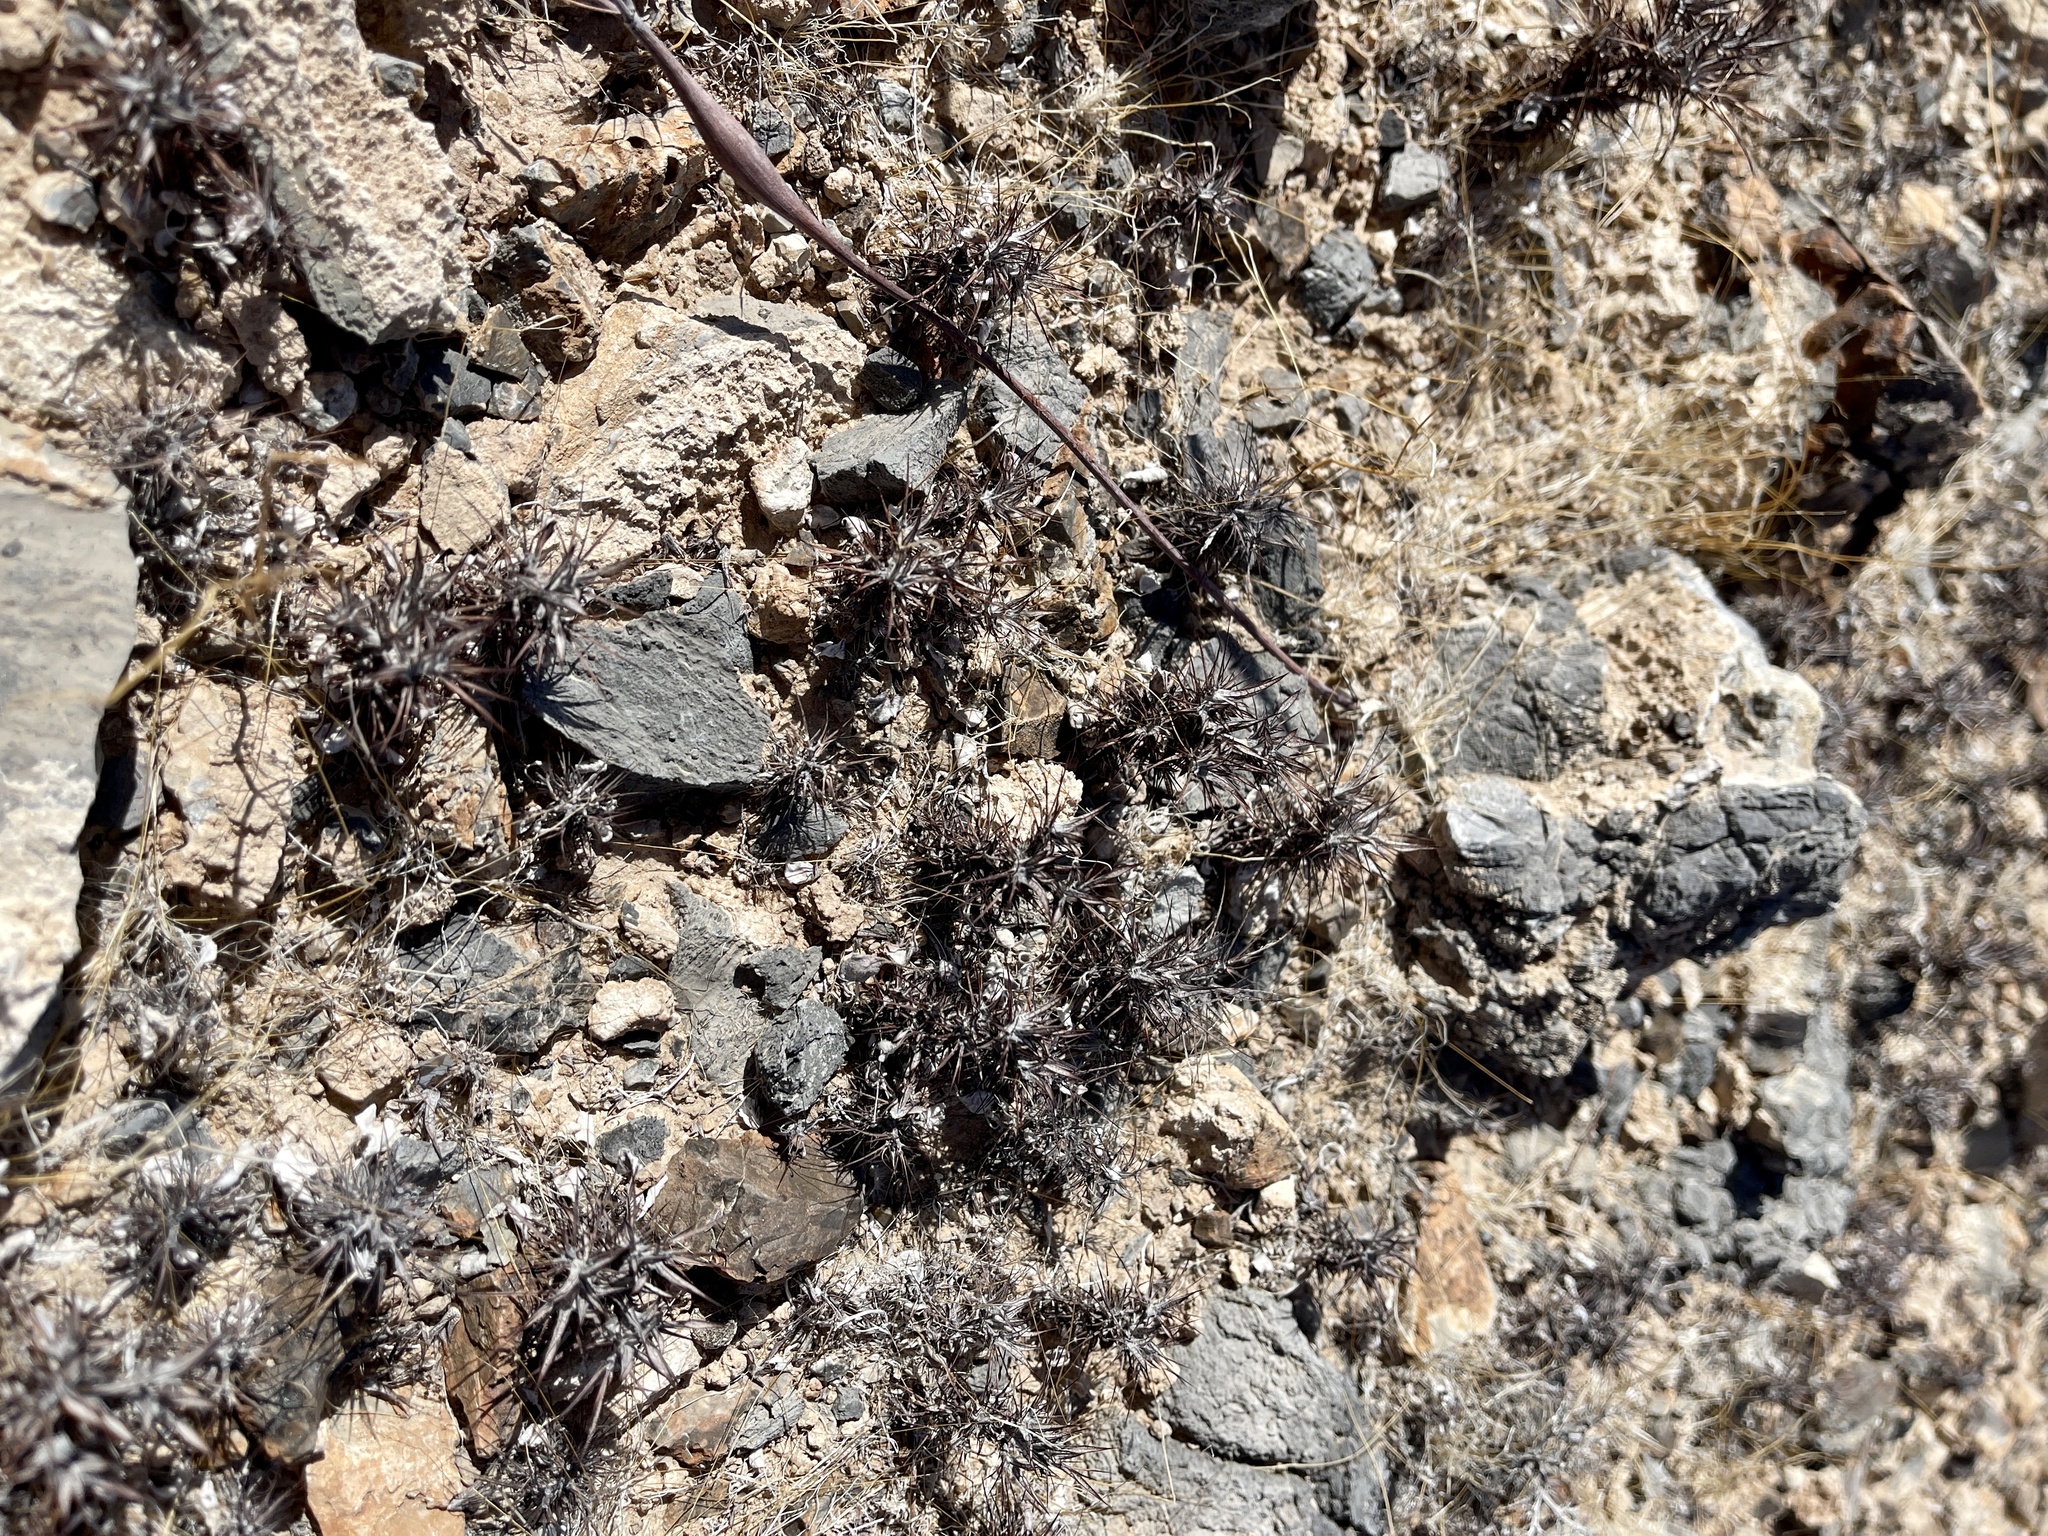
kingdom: Plantae
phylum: Tracheophyta
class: Magnoliopsida
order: Caryophyllales
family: Polygonaceae
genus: Chorizanthe
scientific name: Chorizanthe rigida
